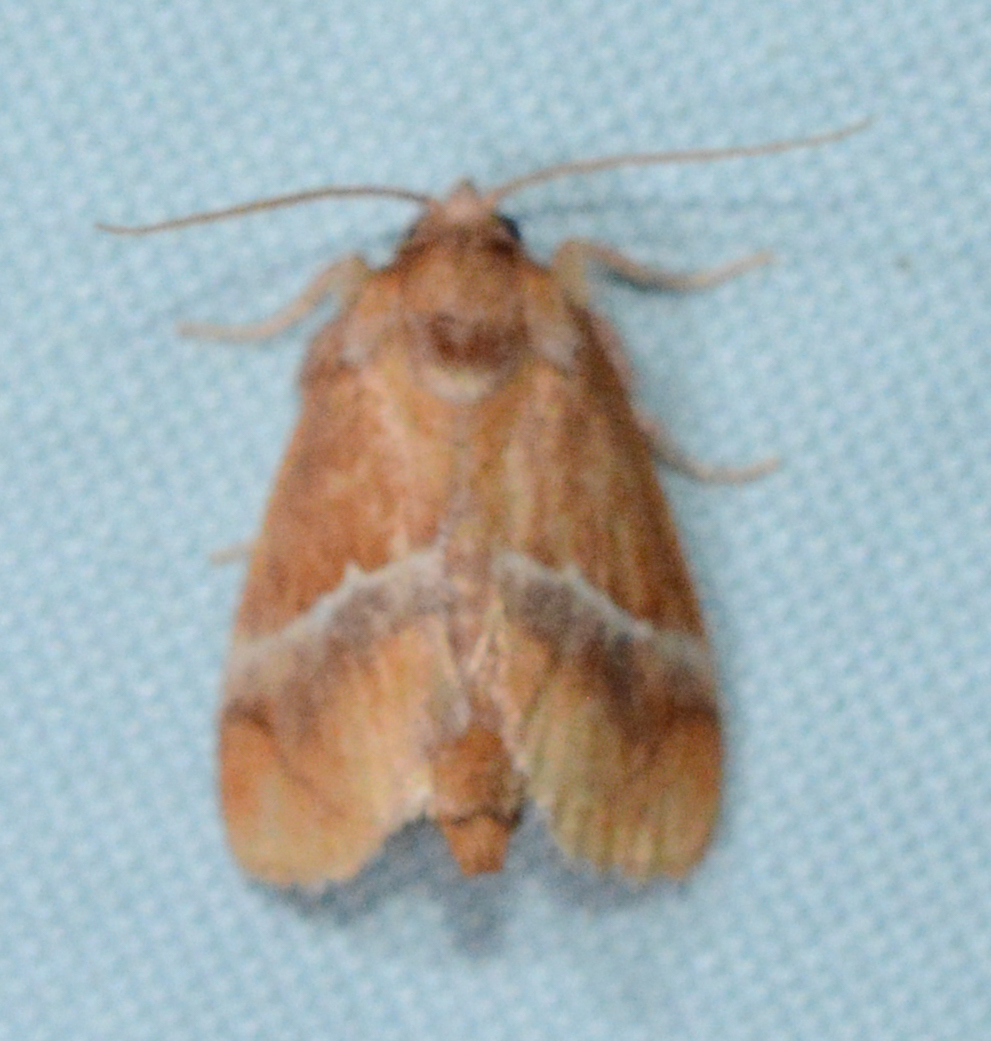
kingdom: Animalia
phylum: Arthropoda
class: Insecta
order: Lepidoptera
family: Limacodidae
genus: Lithacodes
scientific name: Lithacodes fasciola
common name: Yellow-shouldered slug moth
